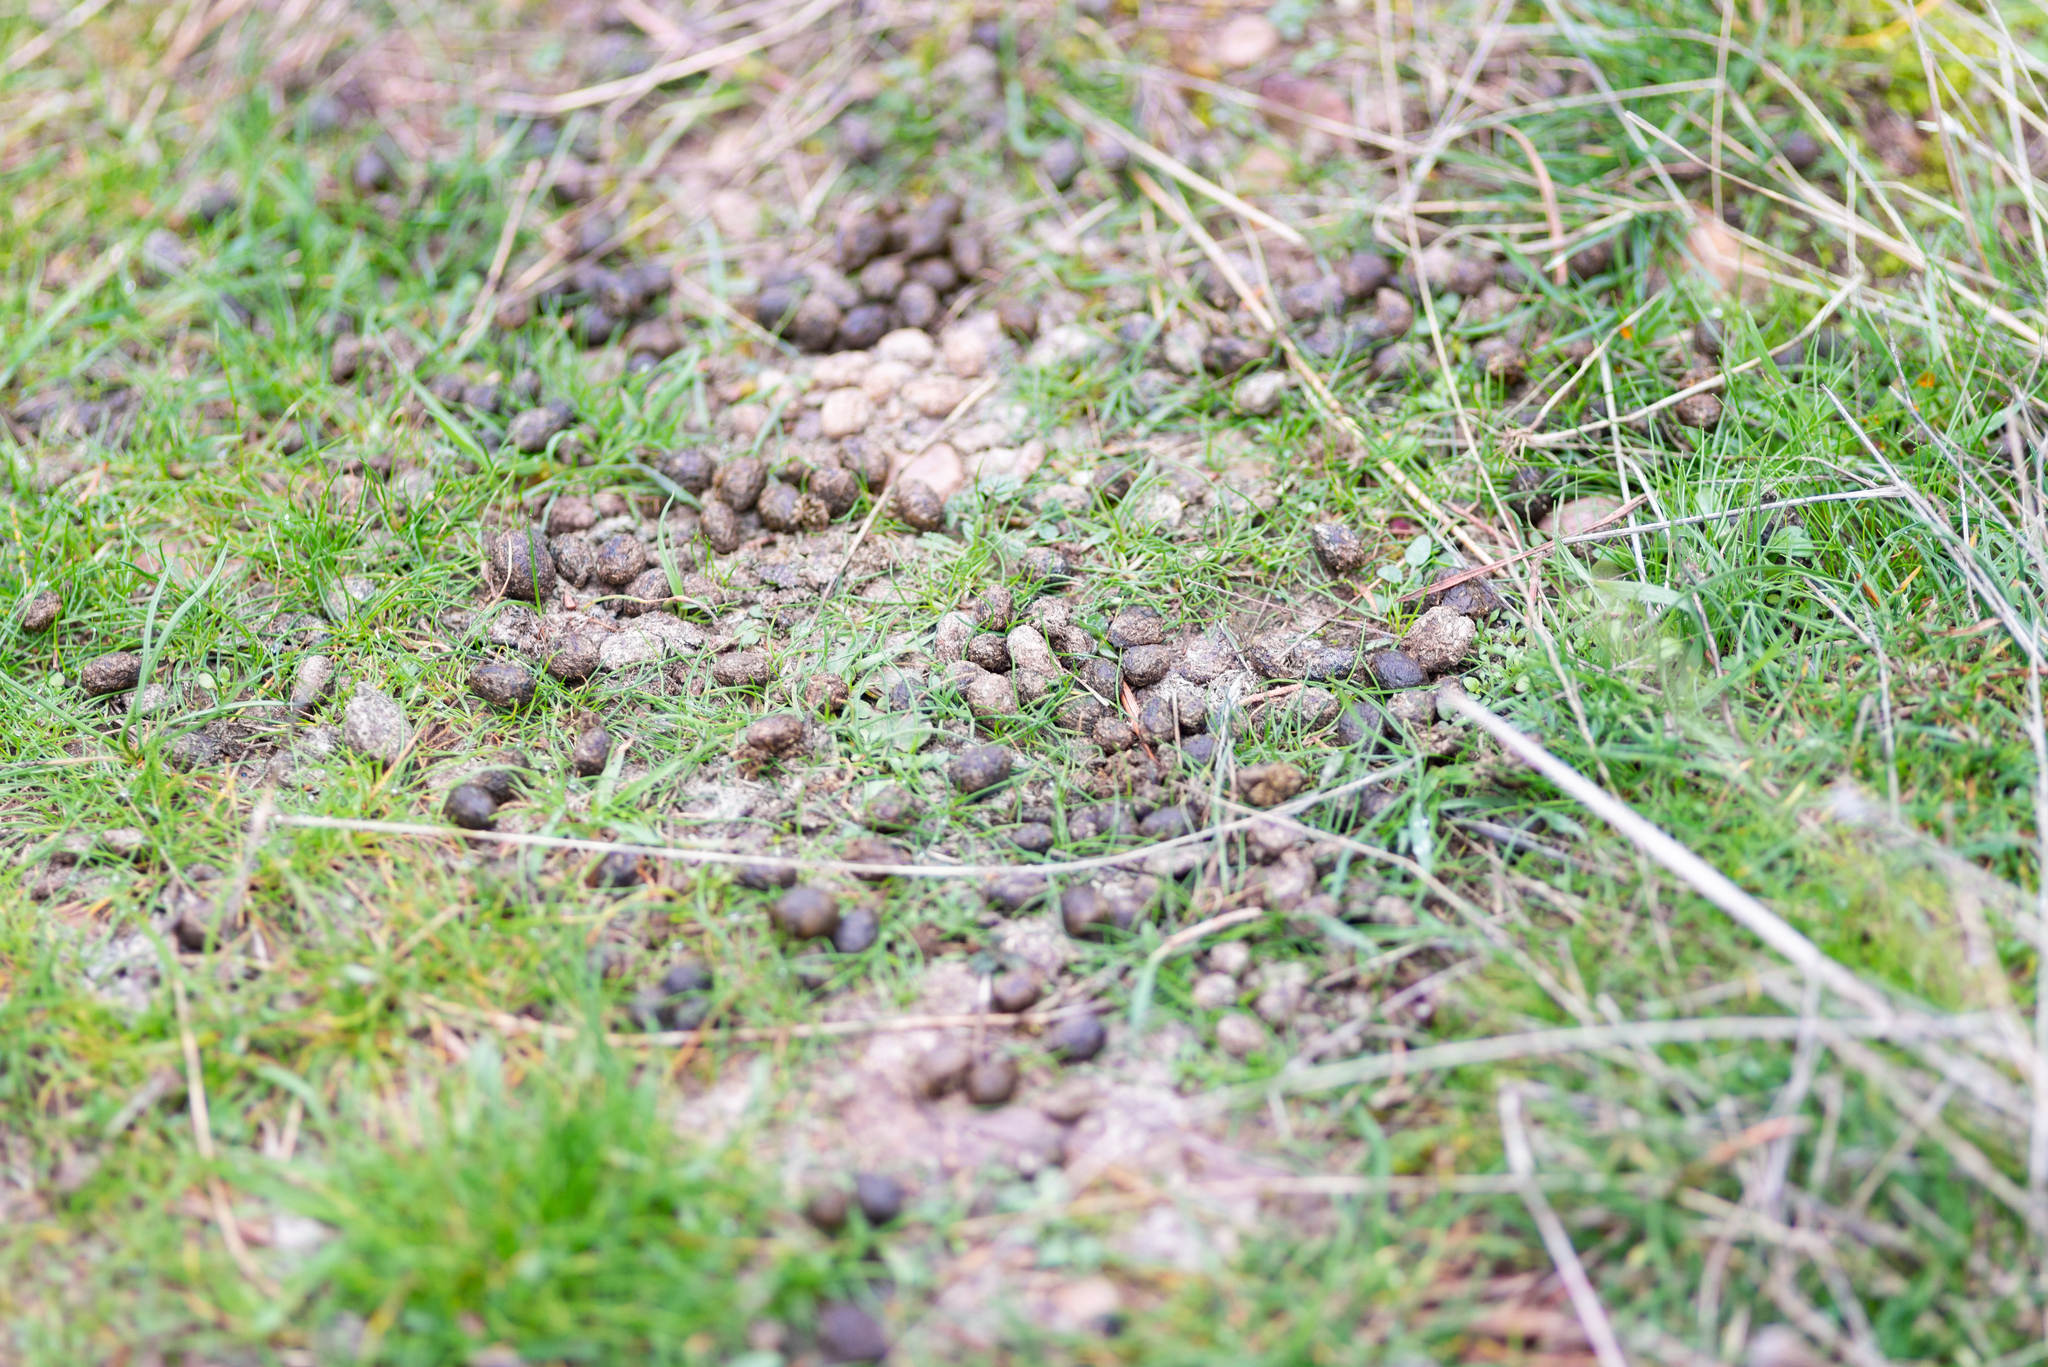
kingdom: Animalia
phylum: Chordata
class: Mammalia
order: Artiodactyla
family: Cervidae
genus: Capreolus
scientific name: Capreolus capreolus
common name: Western roe deer
